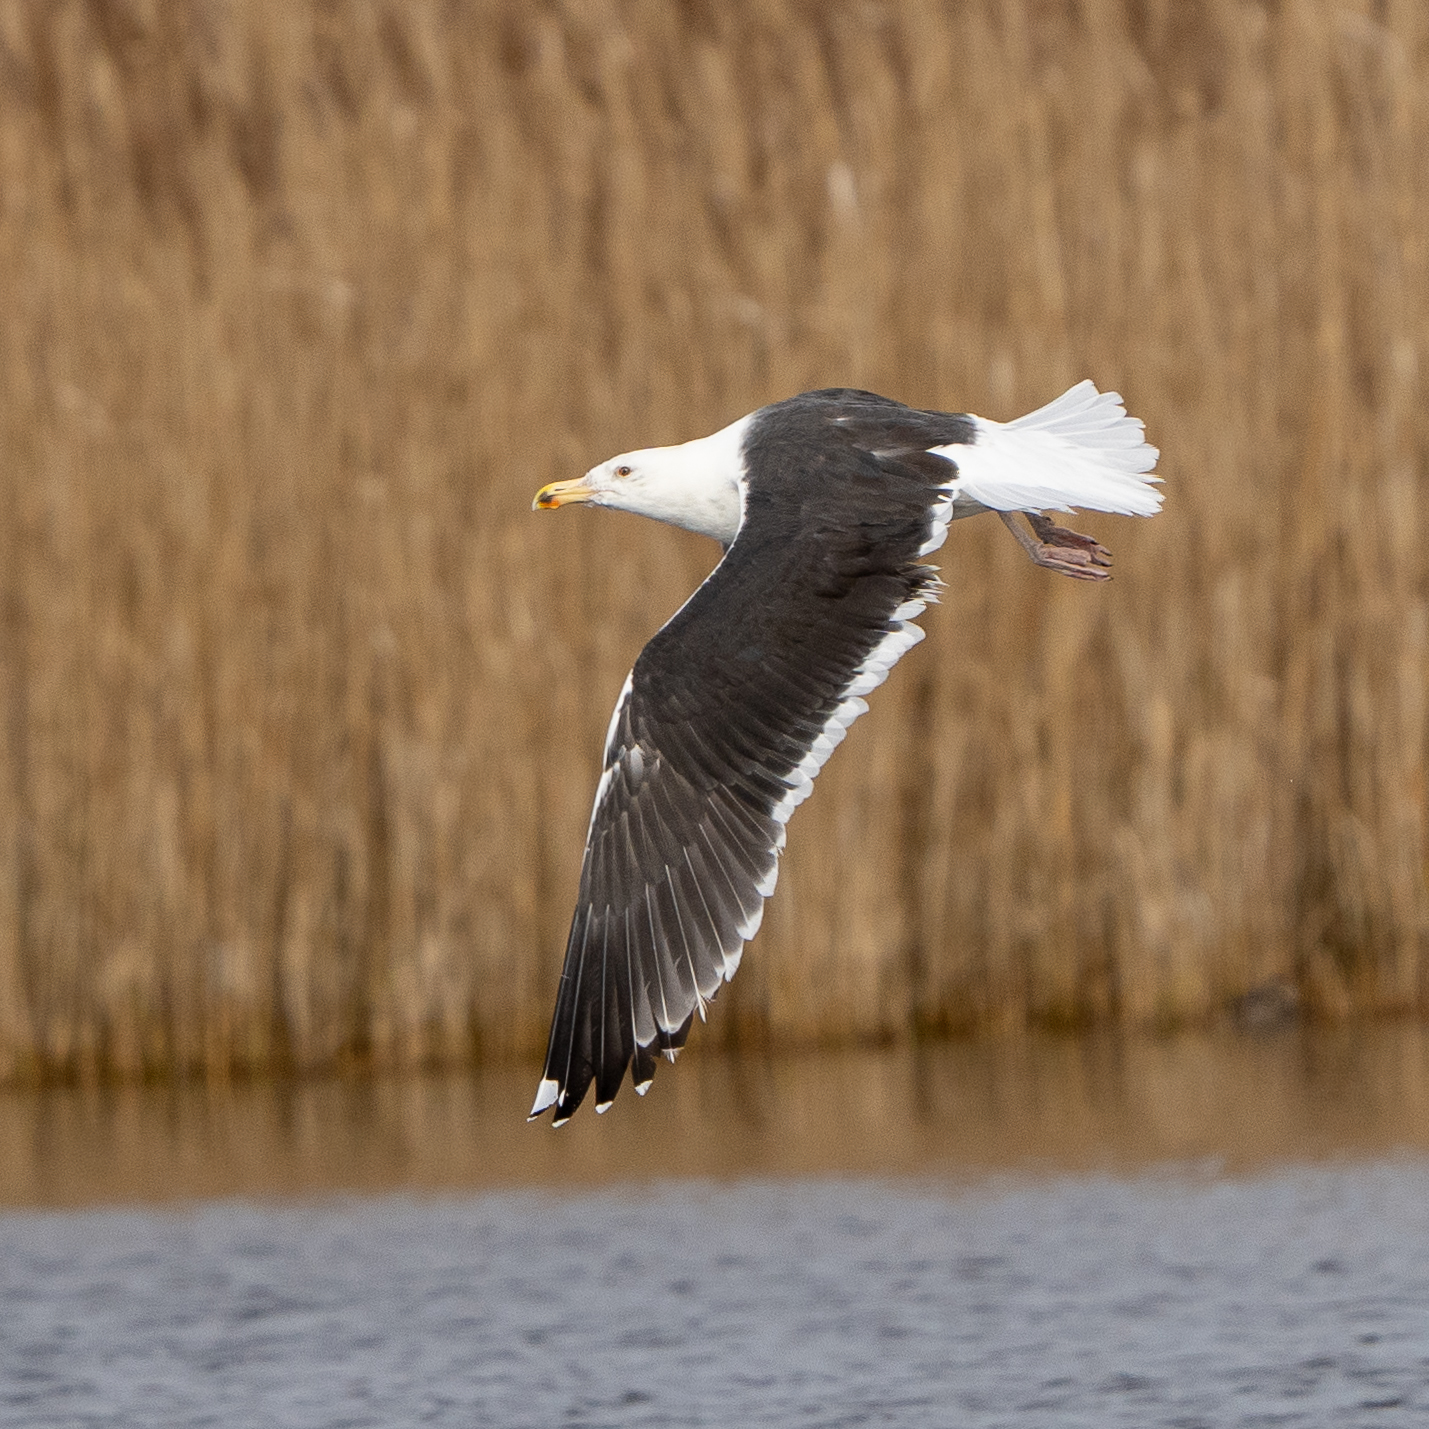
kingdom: Animalia
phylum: Chordata
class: Aves
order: Charadriiformes
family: Laridae
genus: Larus
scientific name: Larus marinus
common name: Great black-backed gull
